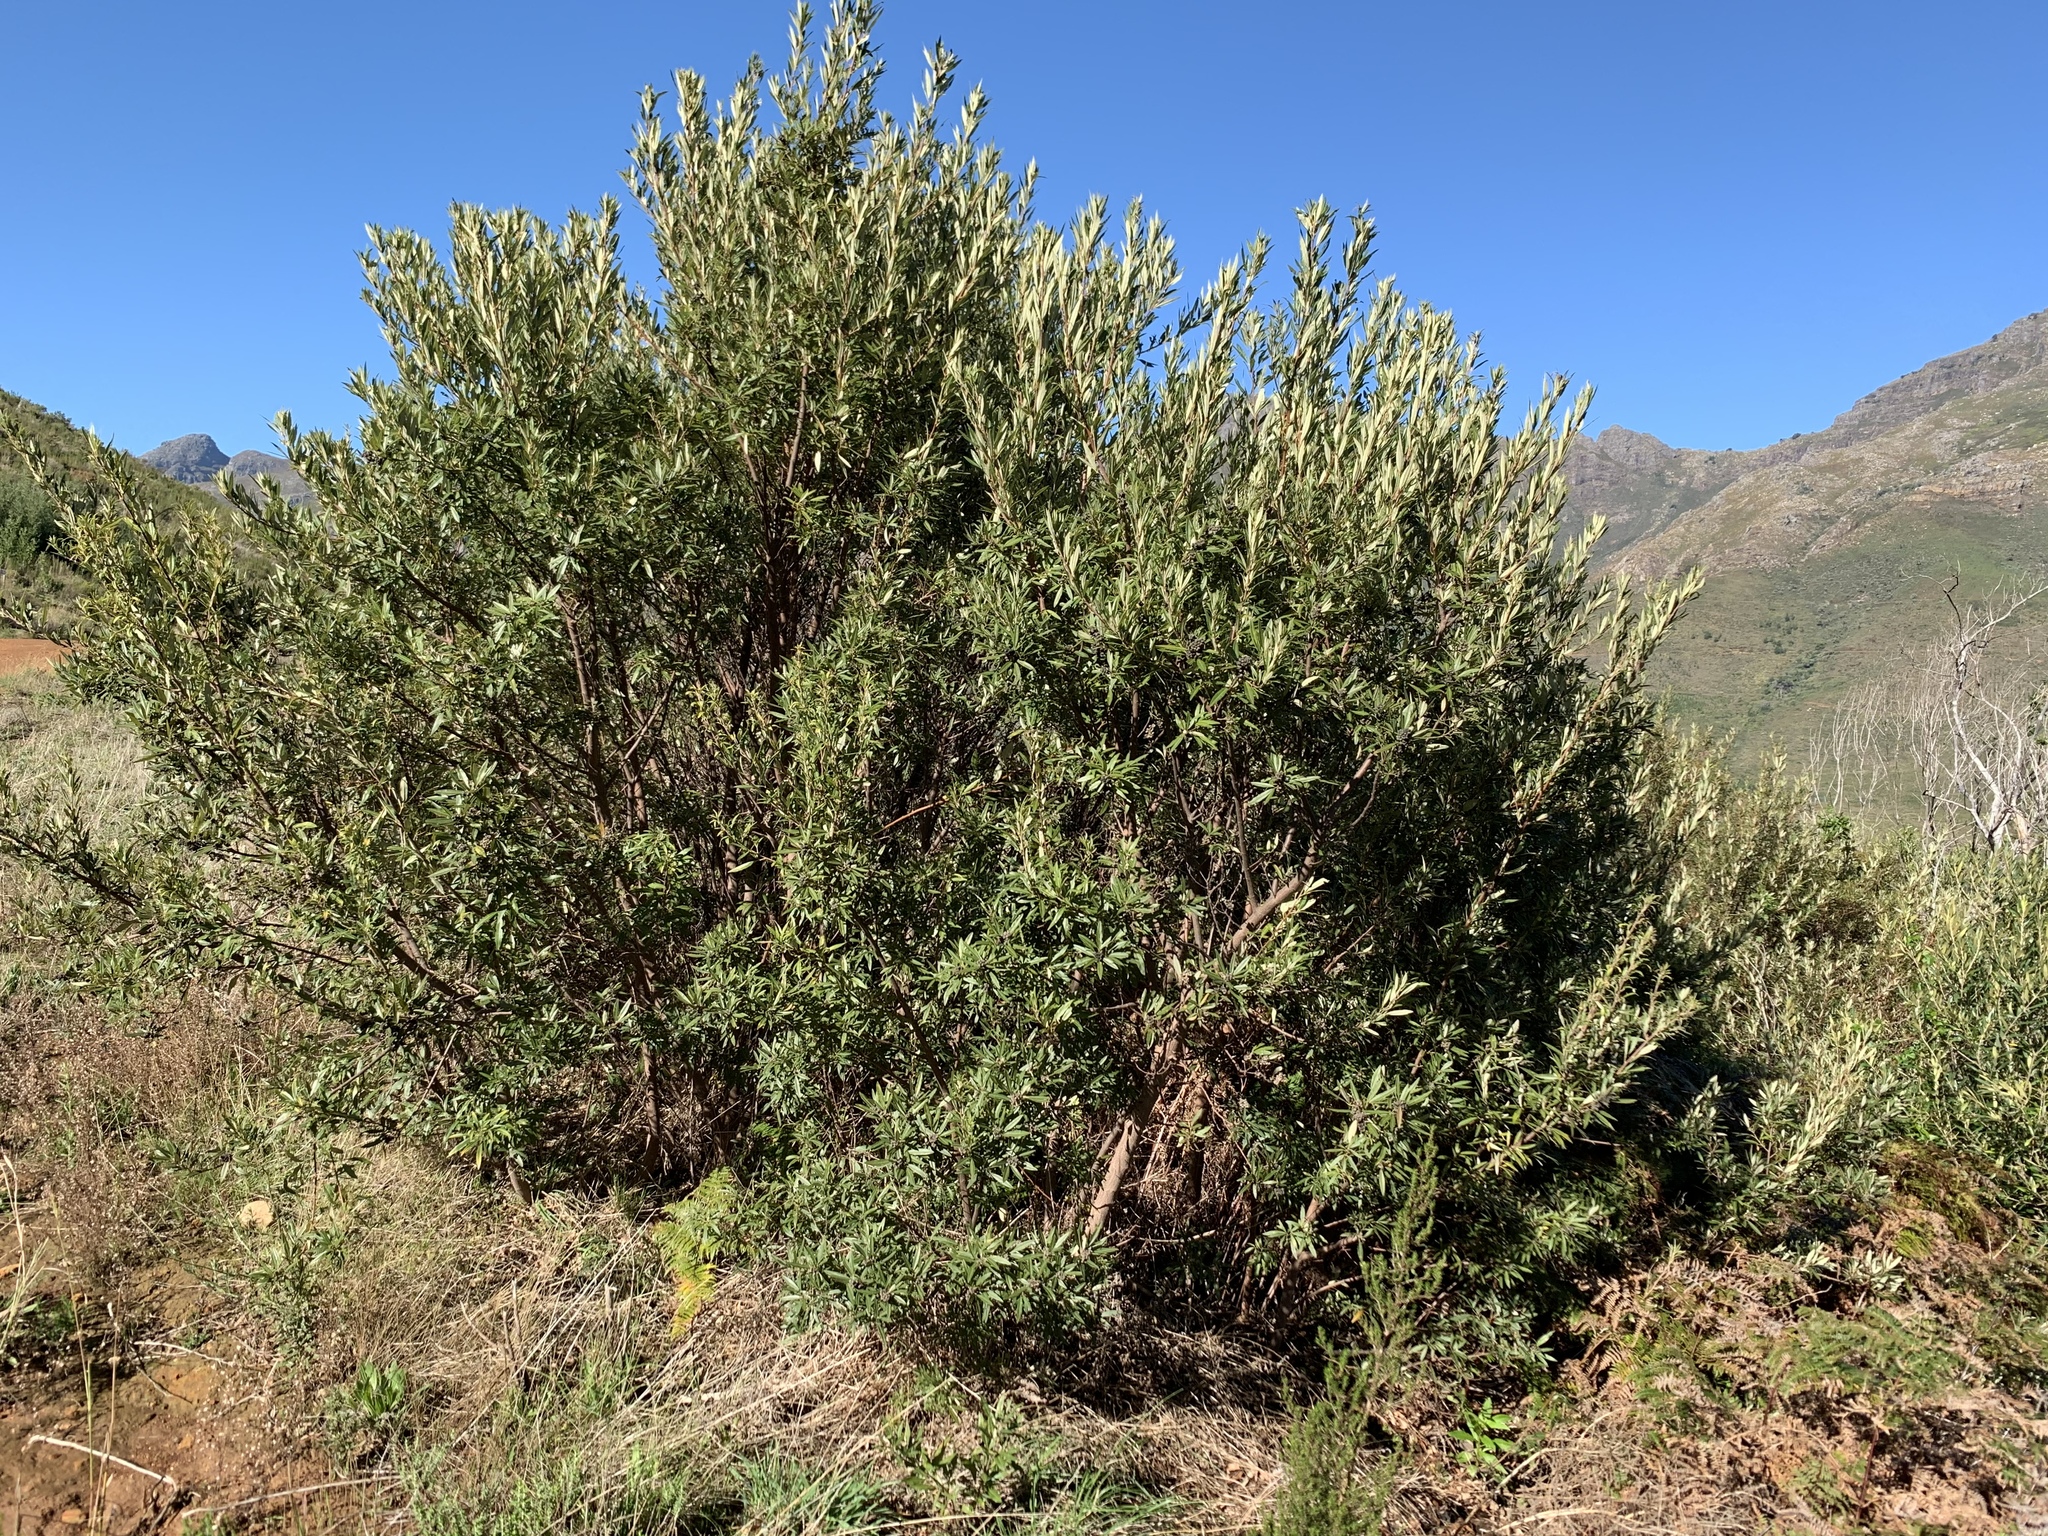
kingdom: Plantae
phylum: Tracheophyta
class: Magnoliopsida
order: Sapindales
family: Anacardiaceae
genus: Searsia
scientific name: Searsia angustifolia
